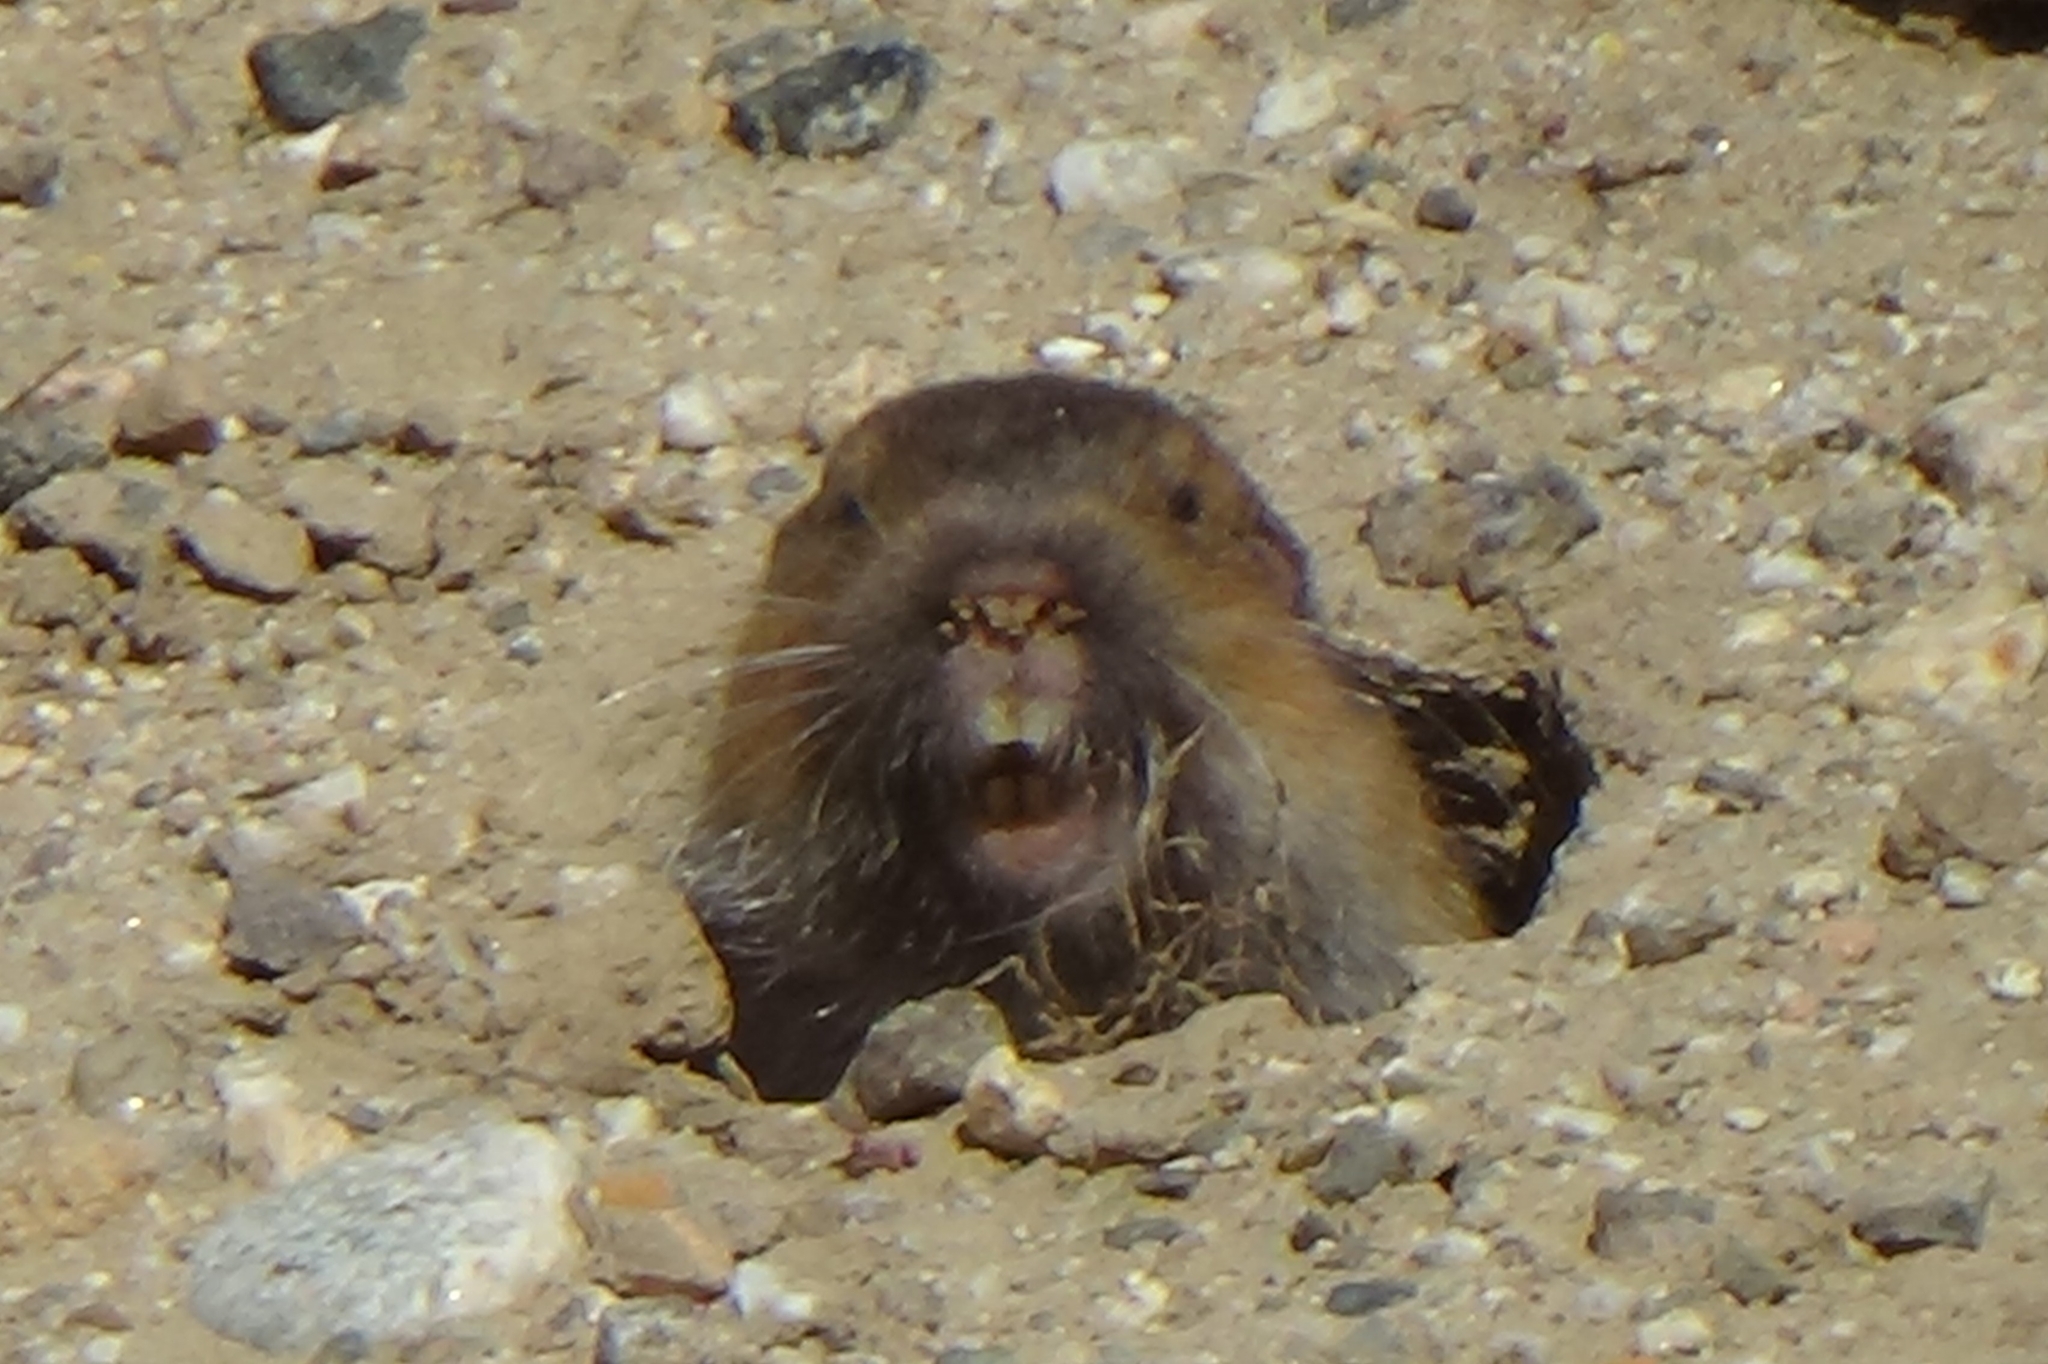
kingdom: Animalia
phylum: Chordata
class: Mammalia
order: Rodentia
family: Geomyidae
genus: Thomomys
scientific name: Thomomys bottae
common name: Botta's pocket gopher
